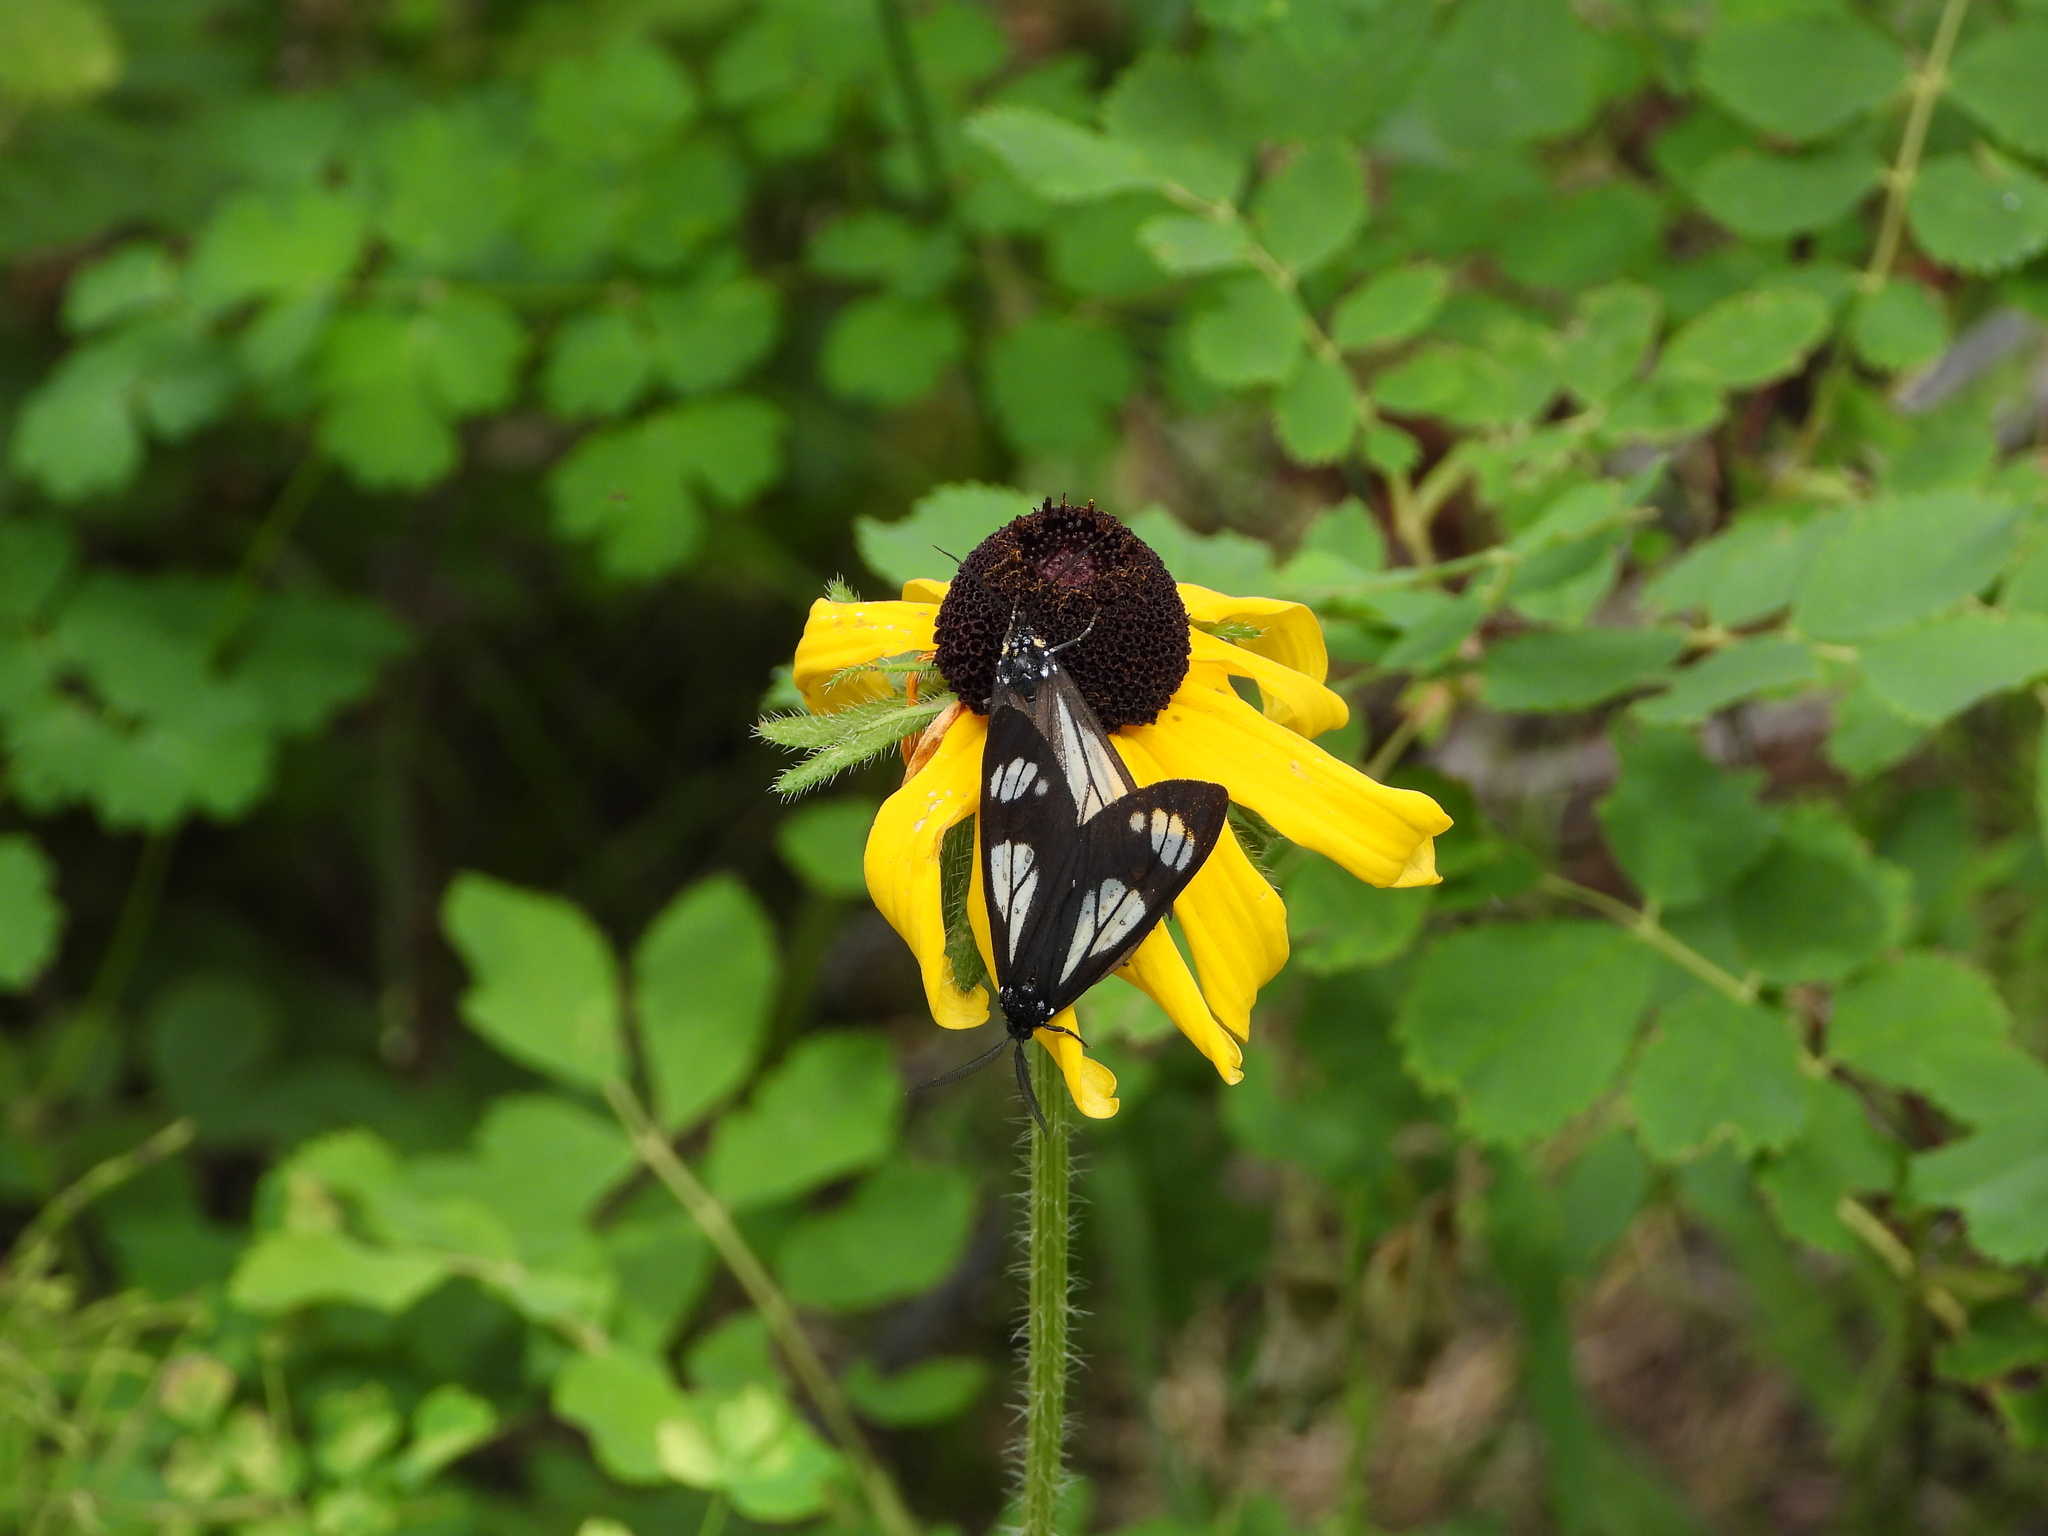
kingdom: Animalia
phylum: Arthropoda
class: Insecta
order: Lepidoptera
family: Erebidae
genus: Gnophaela
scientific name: Gnophaela vermiculata
